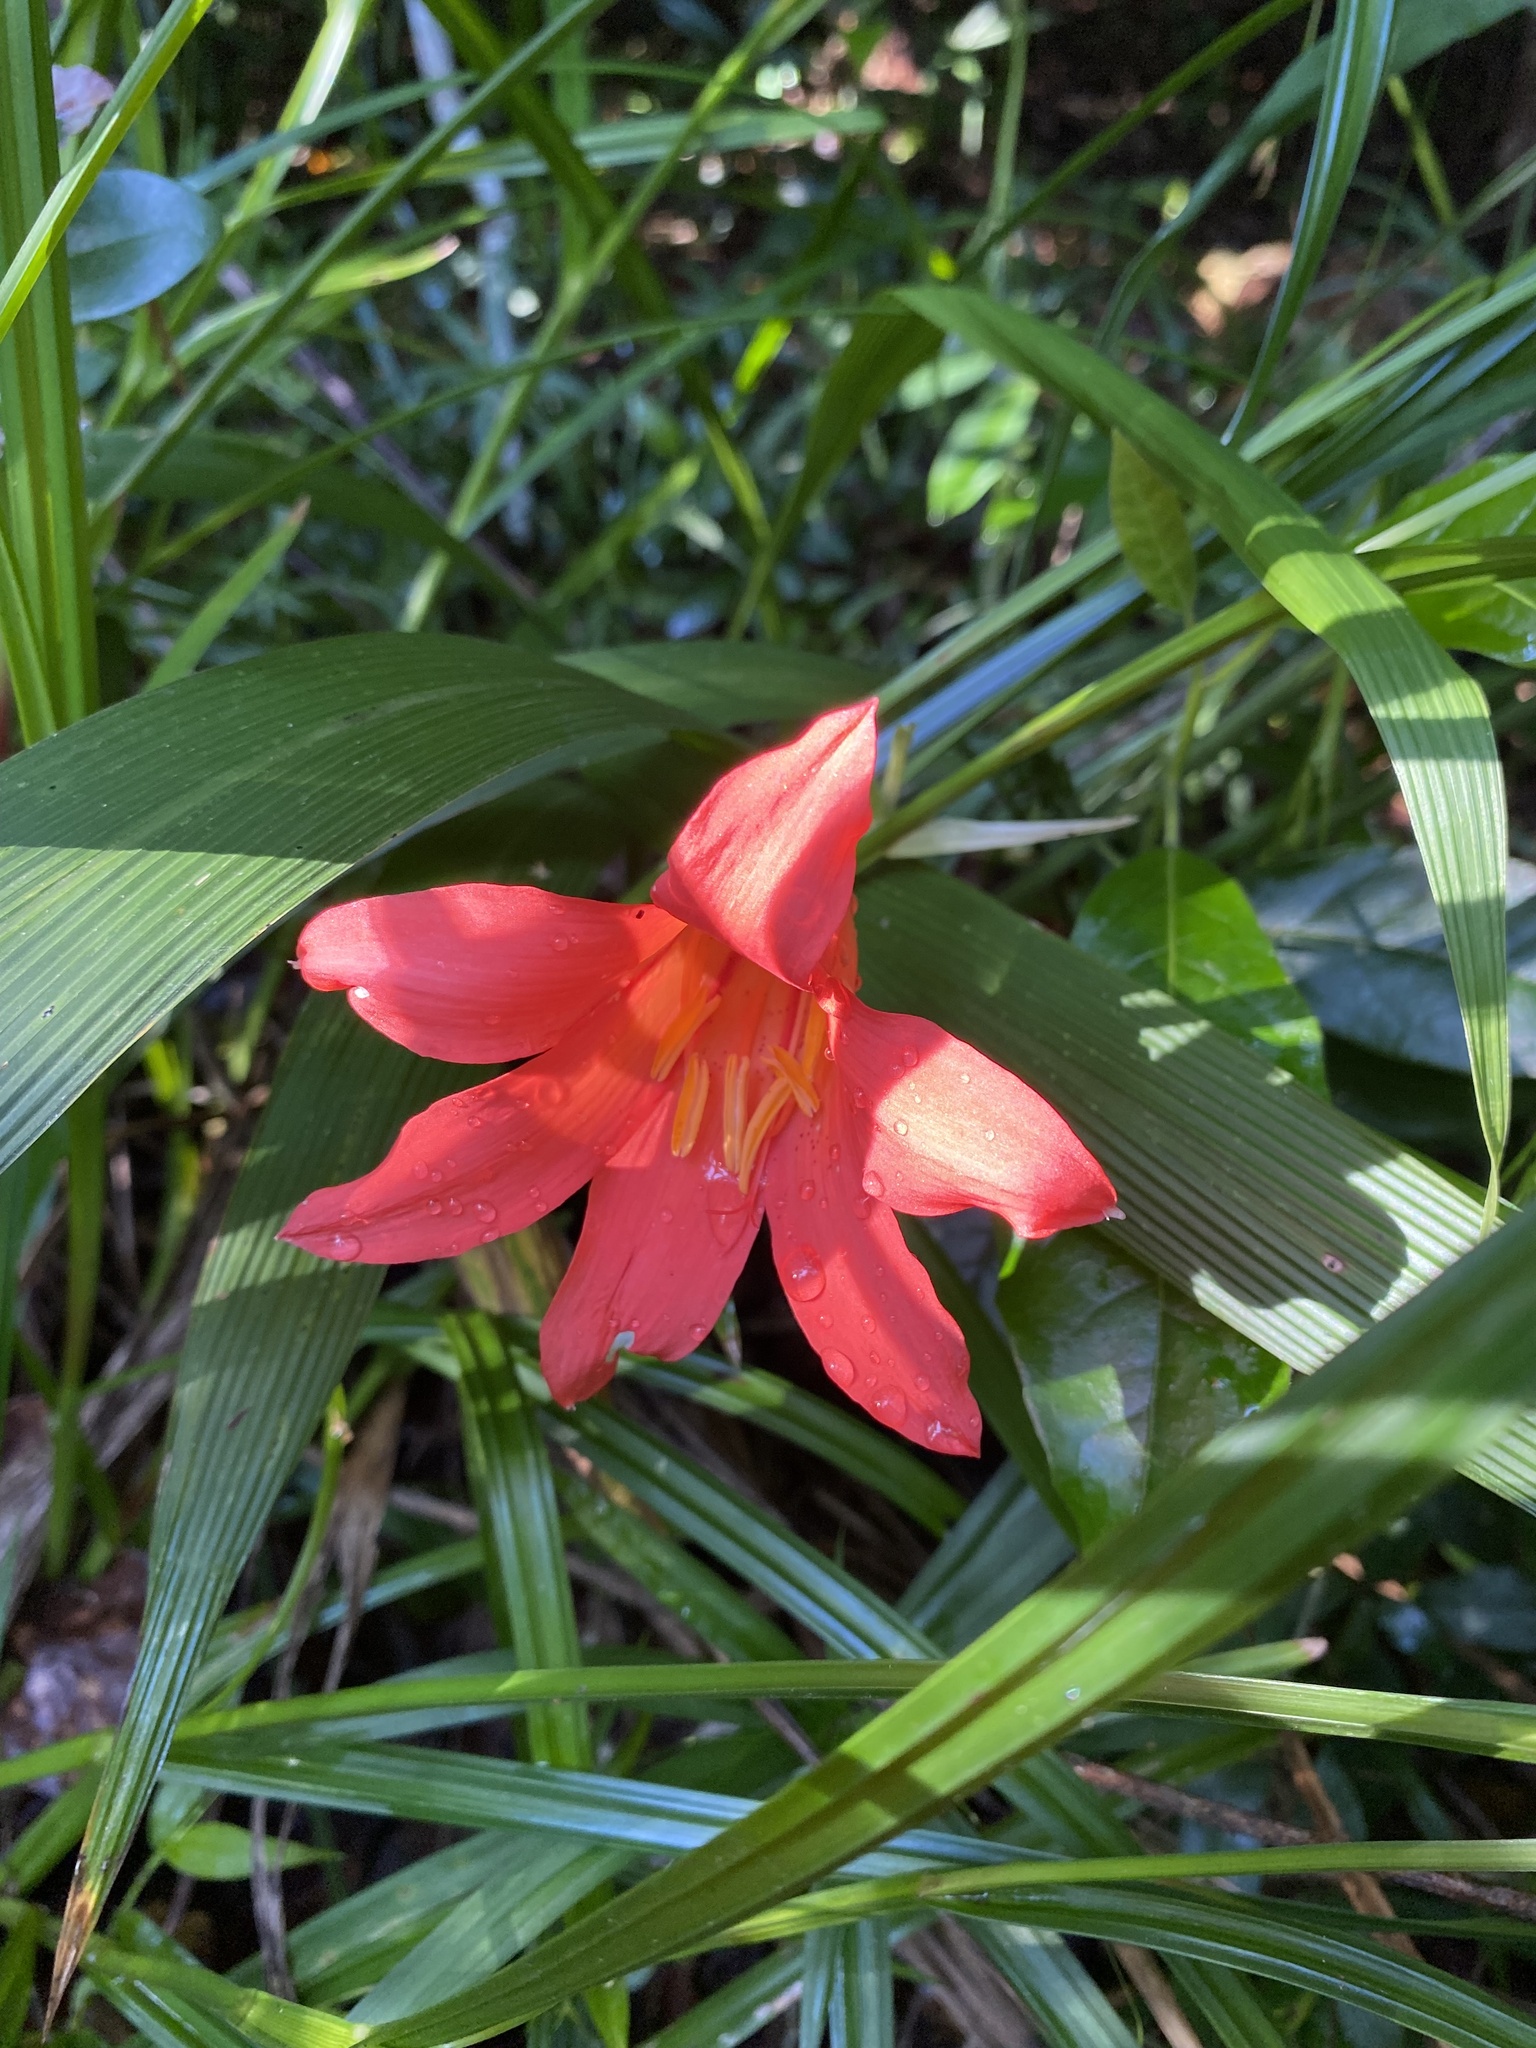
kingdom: Plantae
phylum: Tracheophyta
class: Liliopsida
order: Asparagales
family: Amaryllidaceae
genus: Cyrtanthus
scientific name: Cyrtanthus sanguineus
